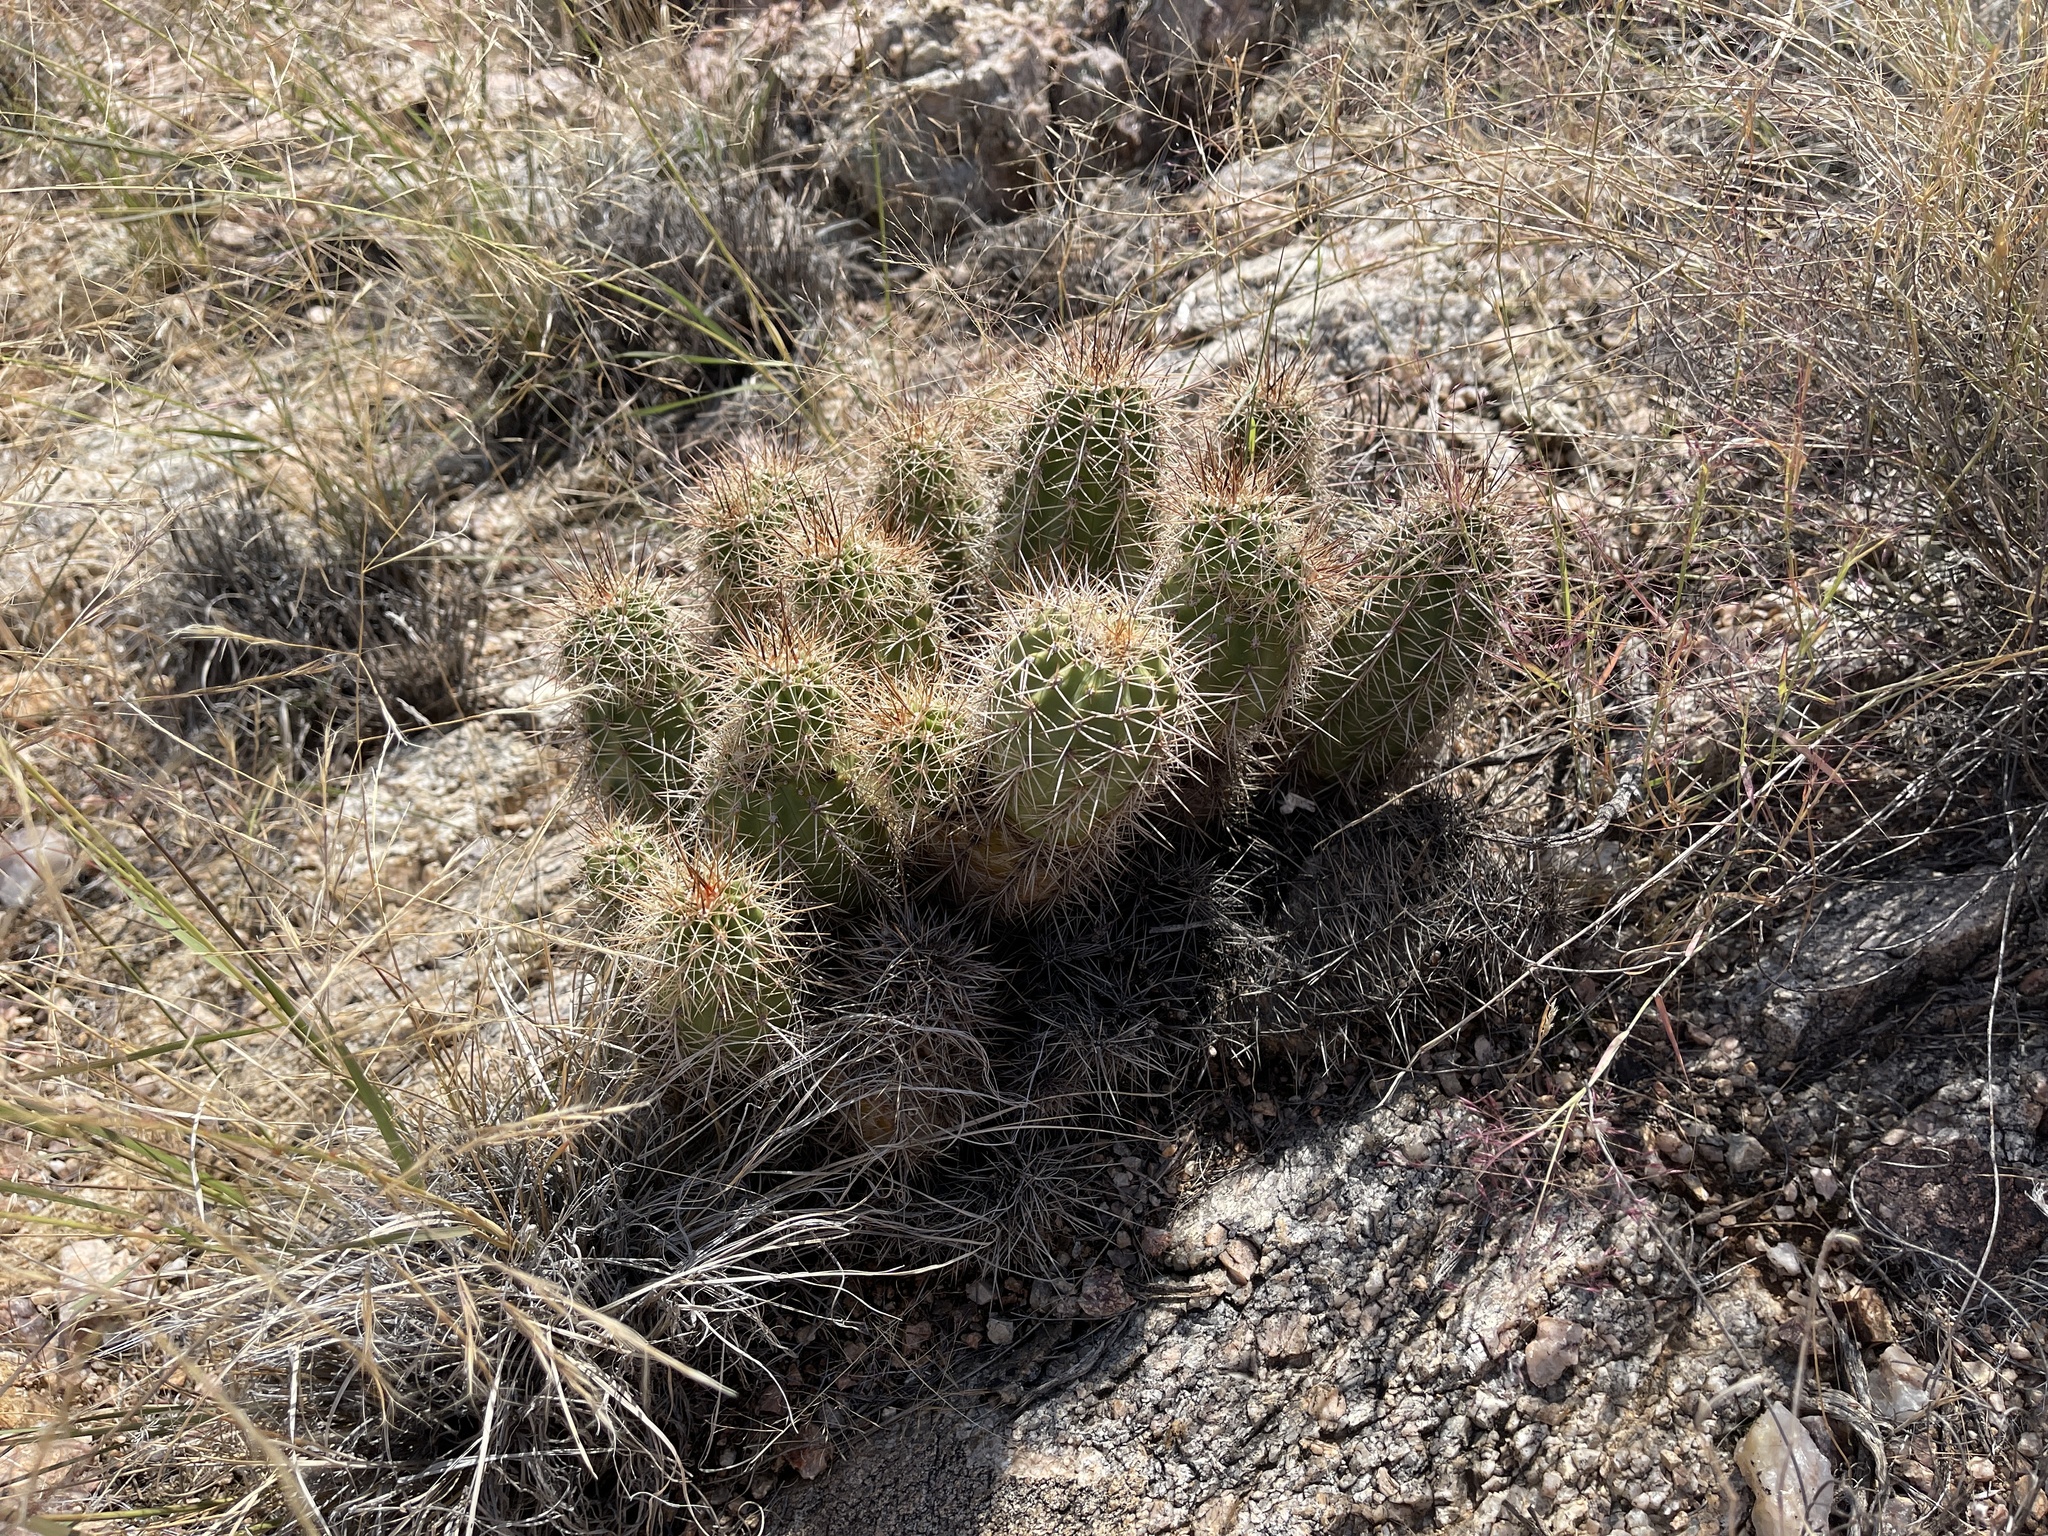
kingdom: Plantae
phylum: Tracheophyta
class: Magnoliopsida
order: Caryophyllales
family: Cactaceae
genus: Echinocereus
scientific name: Echinocereus bakeri
